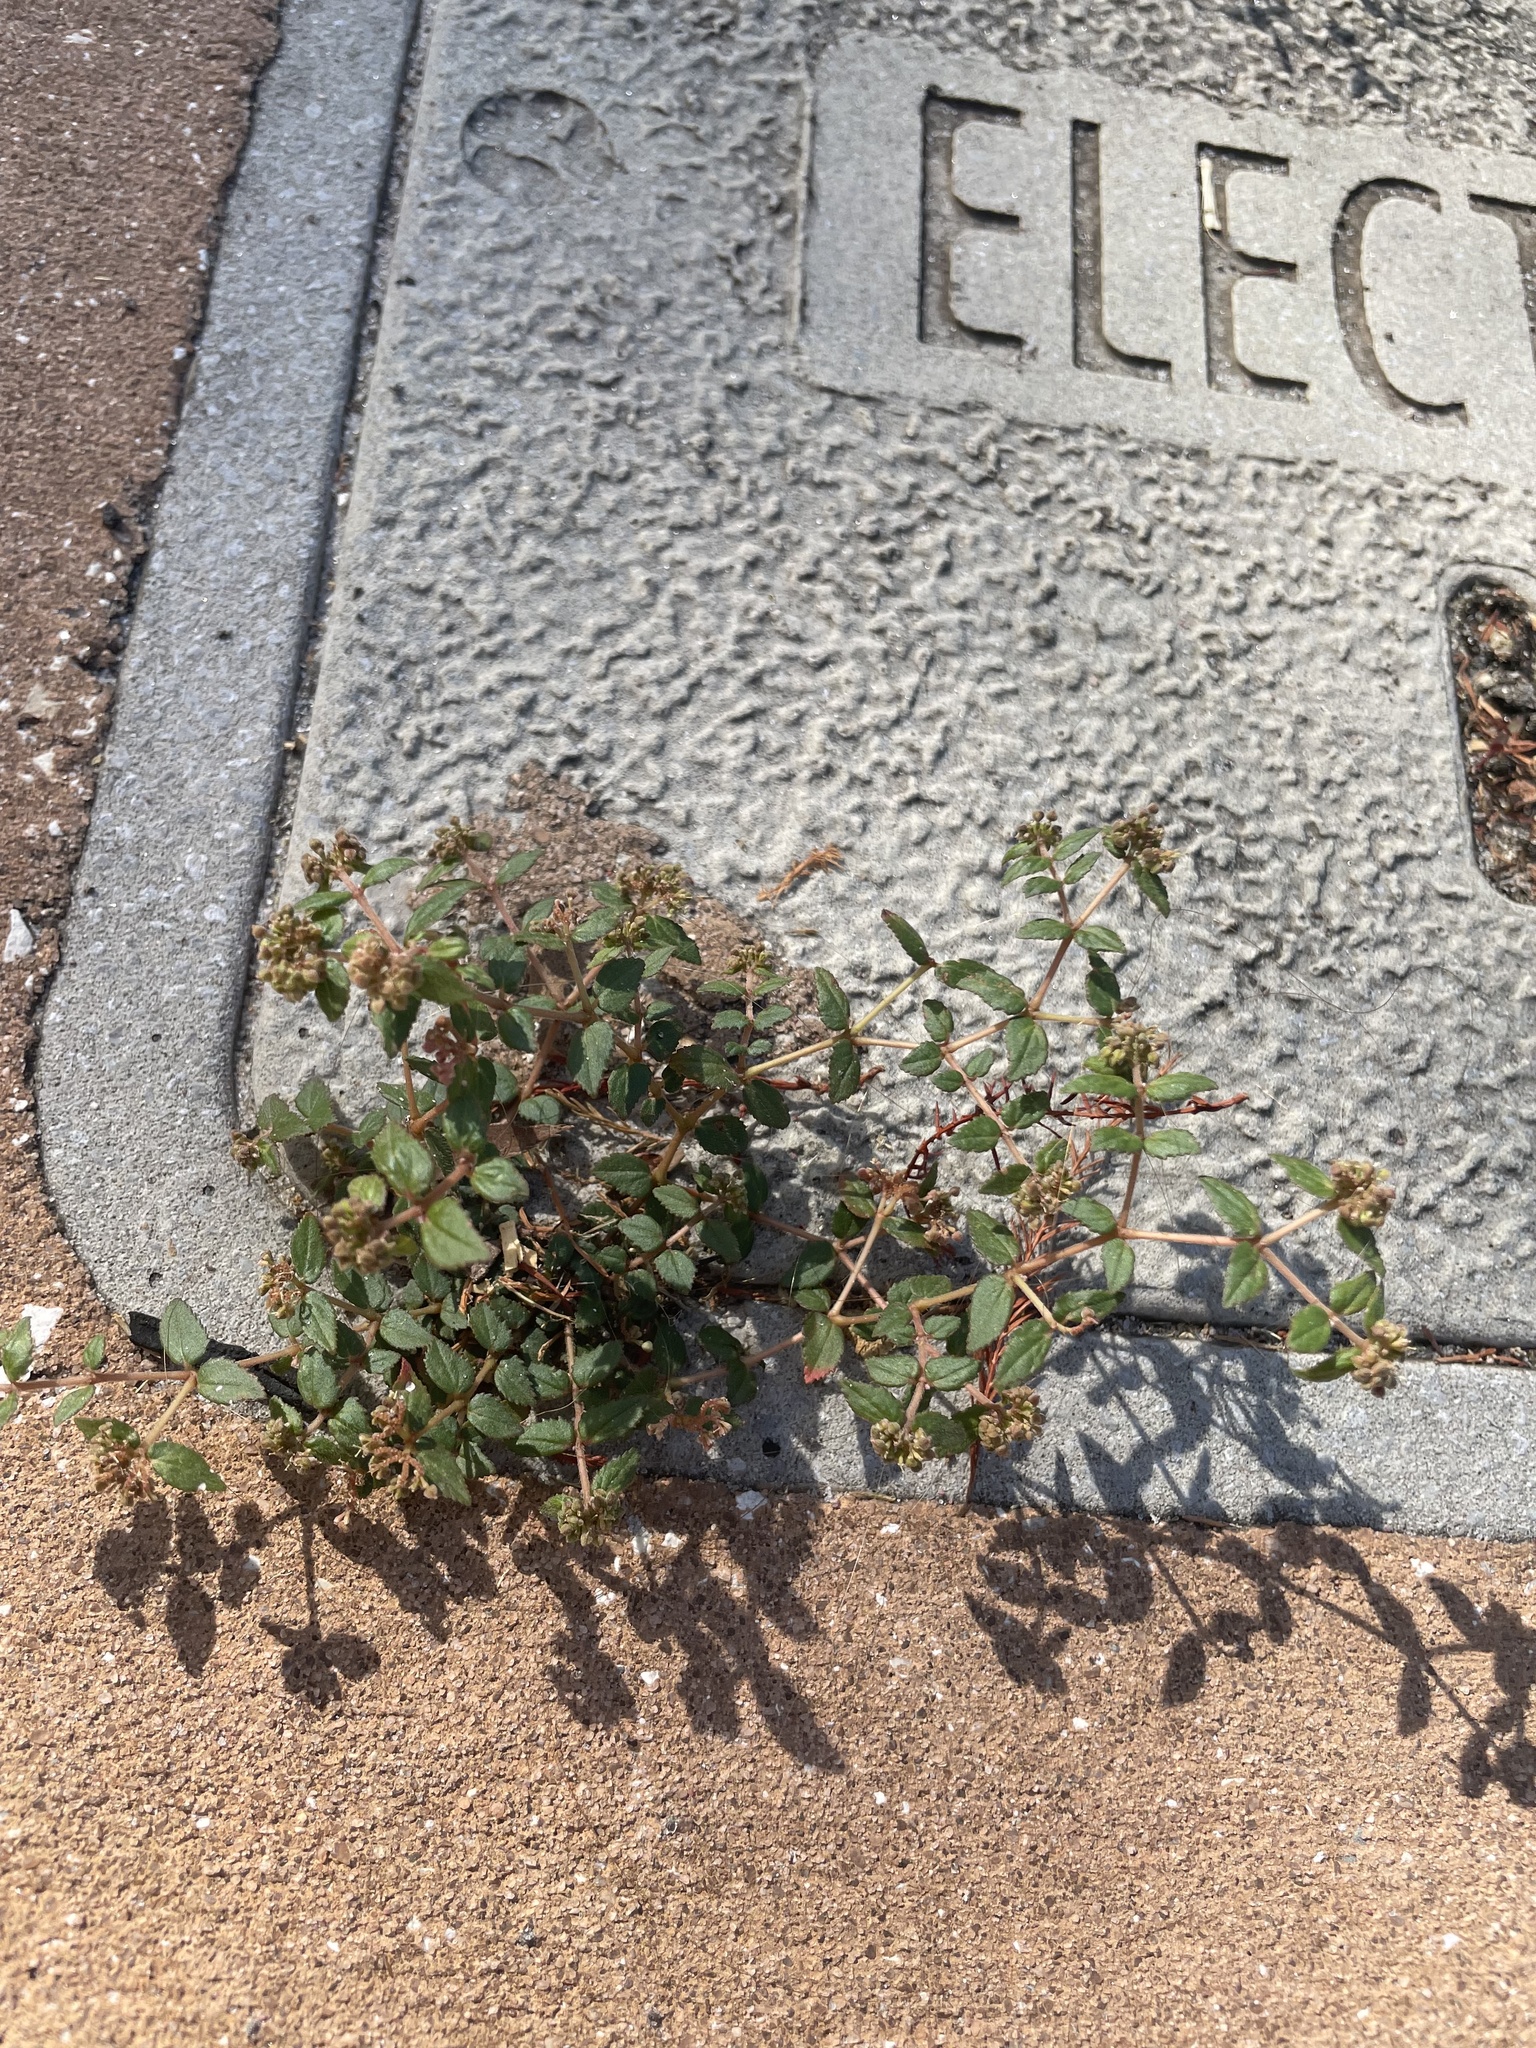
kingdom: Plantae
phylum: Tracheophyta
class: Magnoliopsida
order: Malpighiales
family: Euphorbiaceae
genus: Euphorbia
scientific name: Euphorbia ophthalmica
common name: Florida hammock sandmat
